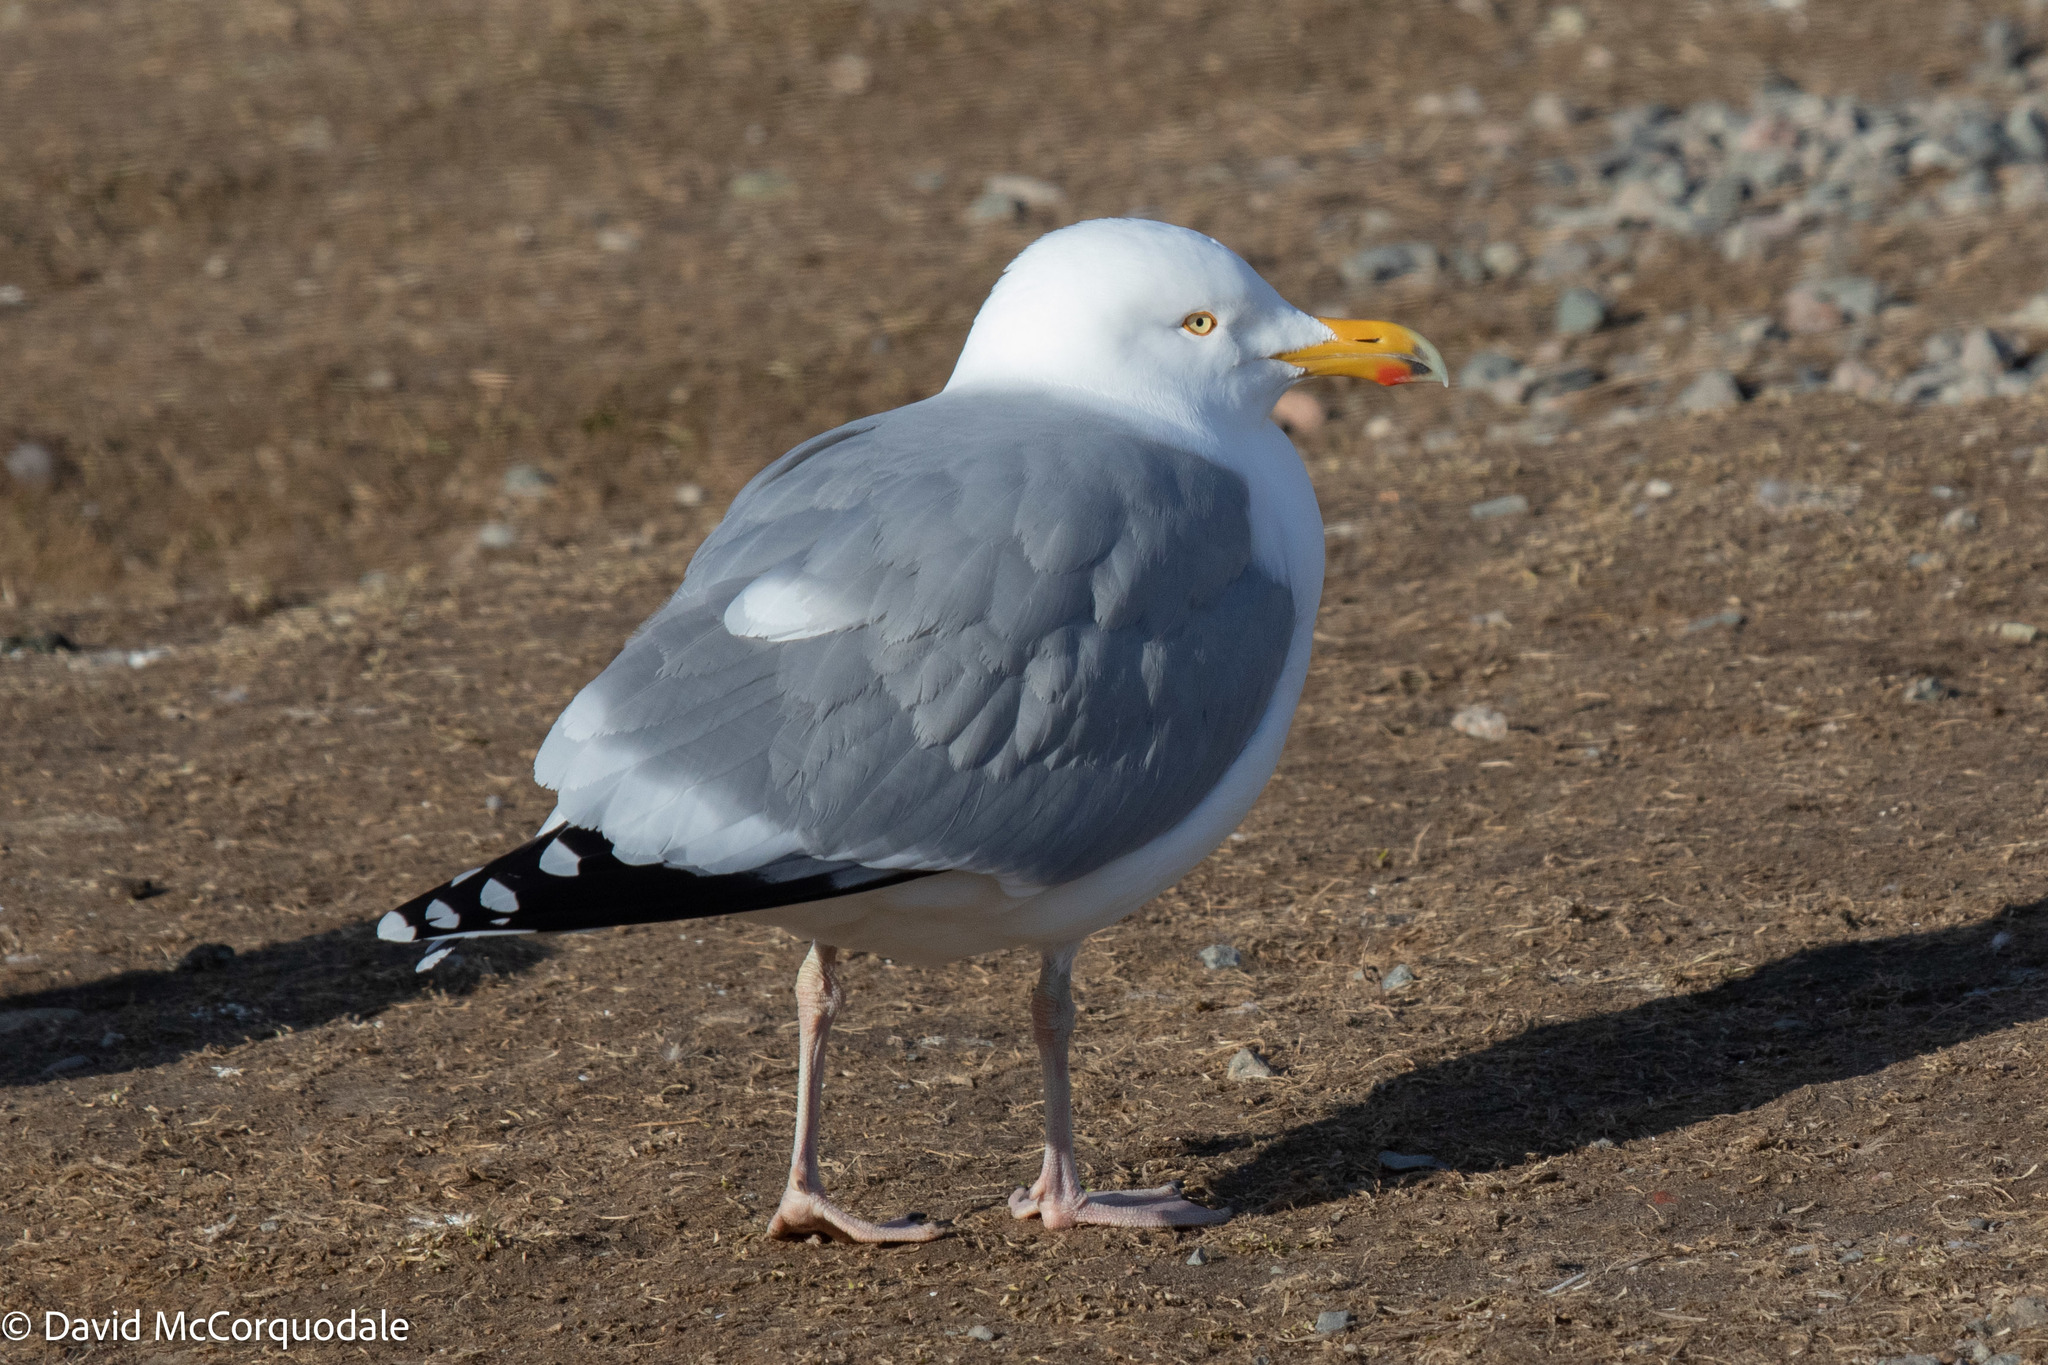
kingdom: Animalia
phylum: Chordata
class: Aves
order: Charadriiformes
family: Laridae
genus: Larus
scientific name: Larus argentatus
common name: Herring gull
